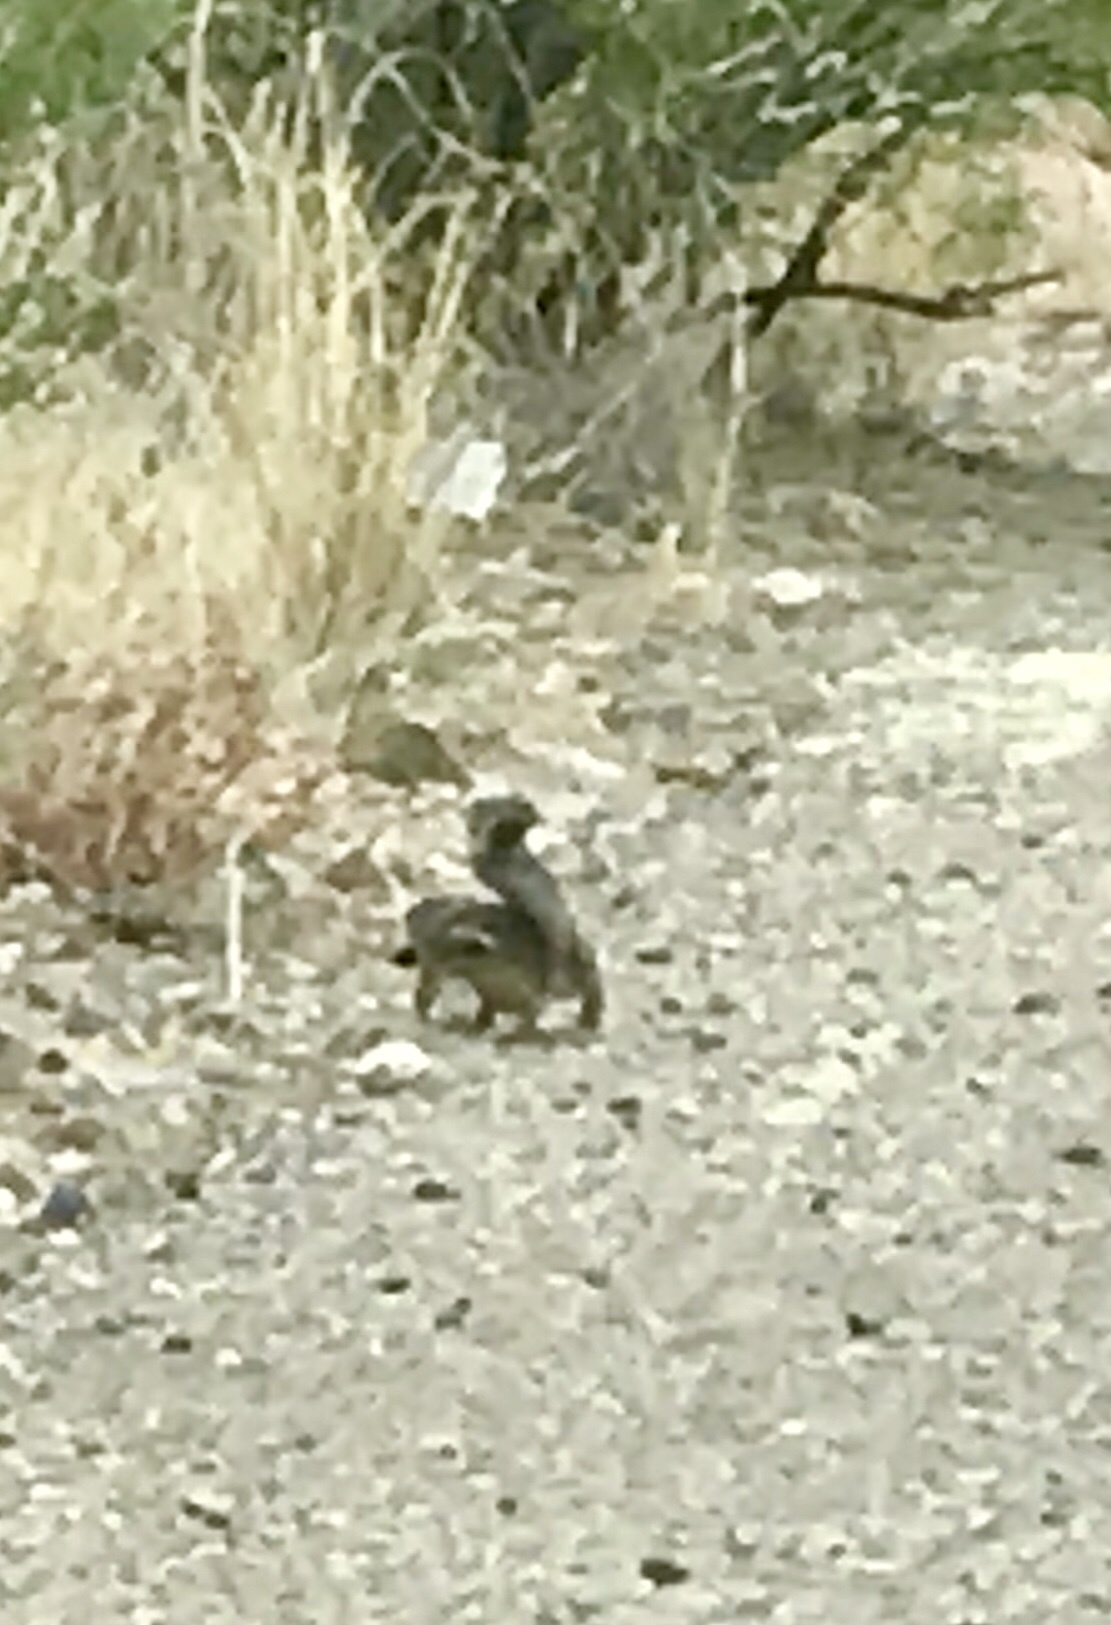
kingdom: Animalia
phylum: Chordata
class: Mammalia
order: Rodentia
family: Sciuridae
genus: Ammospermophilus
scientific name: Ammospermophilus harrisii
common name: Harris's antelope squirrel
